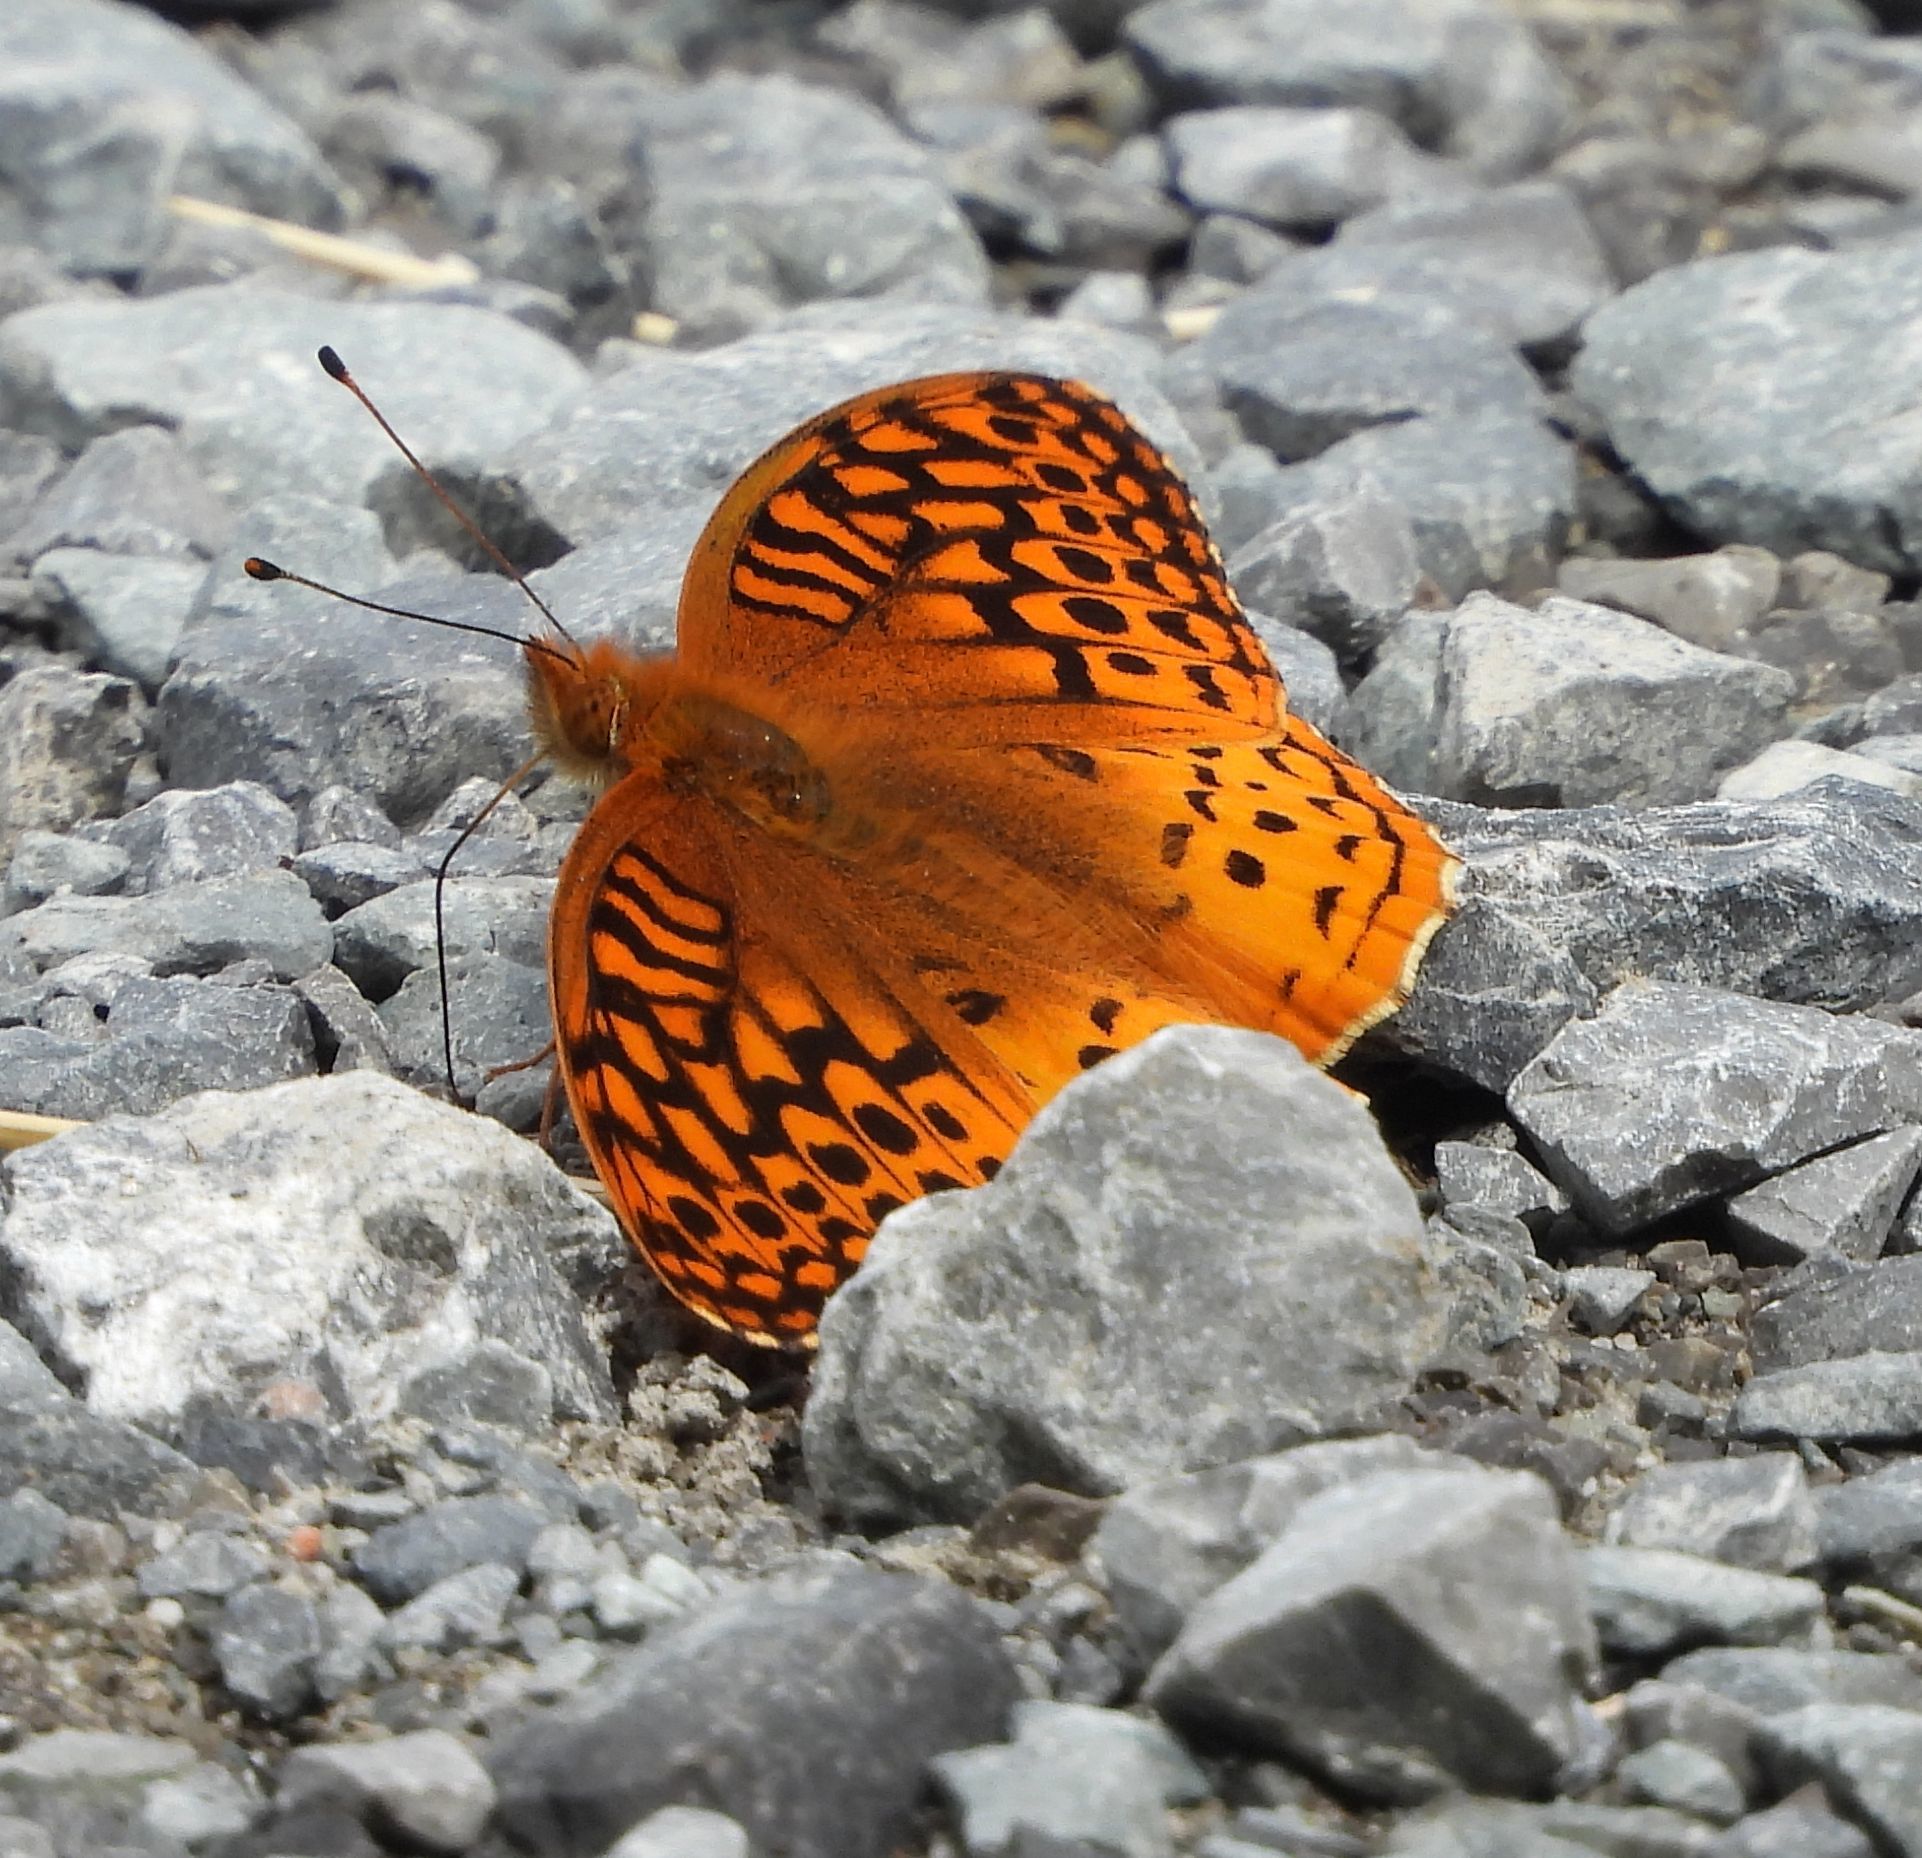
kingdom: Animalia
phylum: Arthropoda
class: Insecta
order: Lepidoptera
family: Nymphalidae
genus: Speyeria
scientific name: Speyeria cybele
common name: Great spangled fritillary
